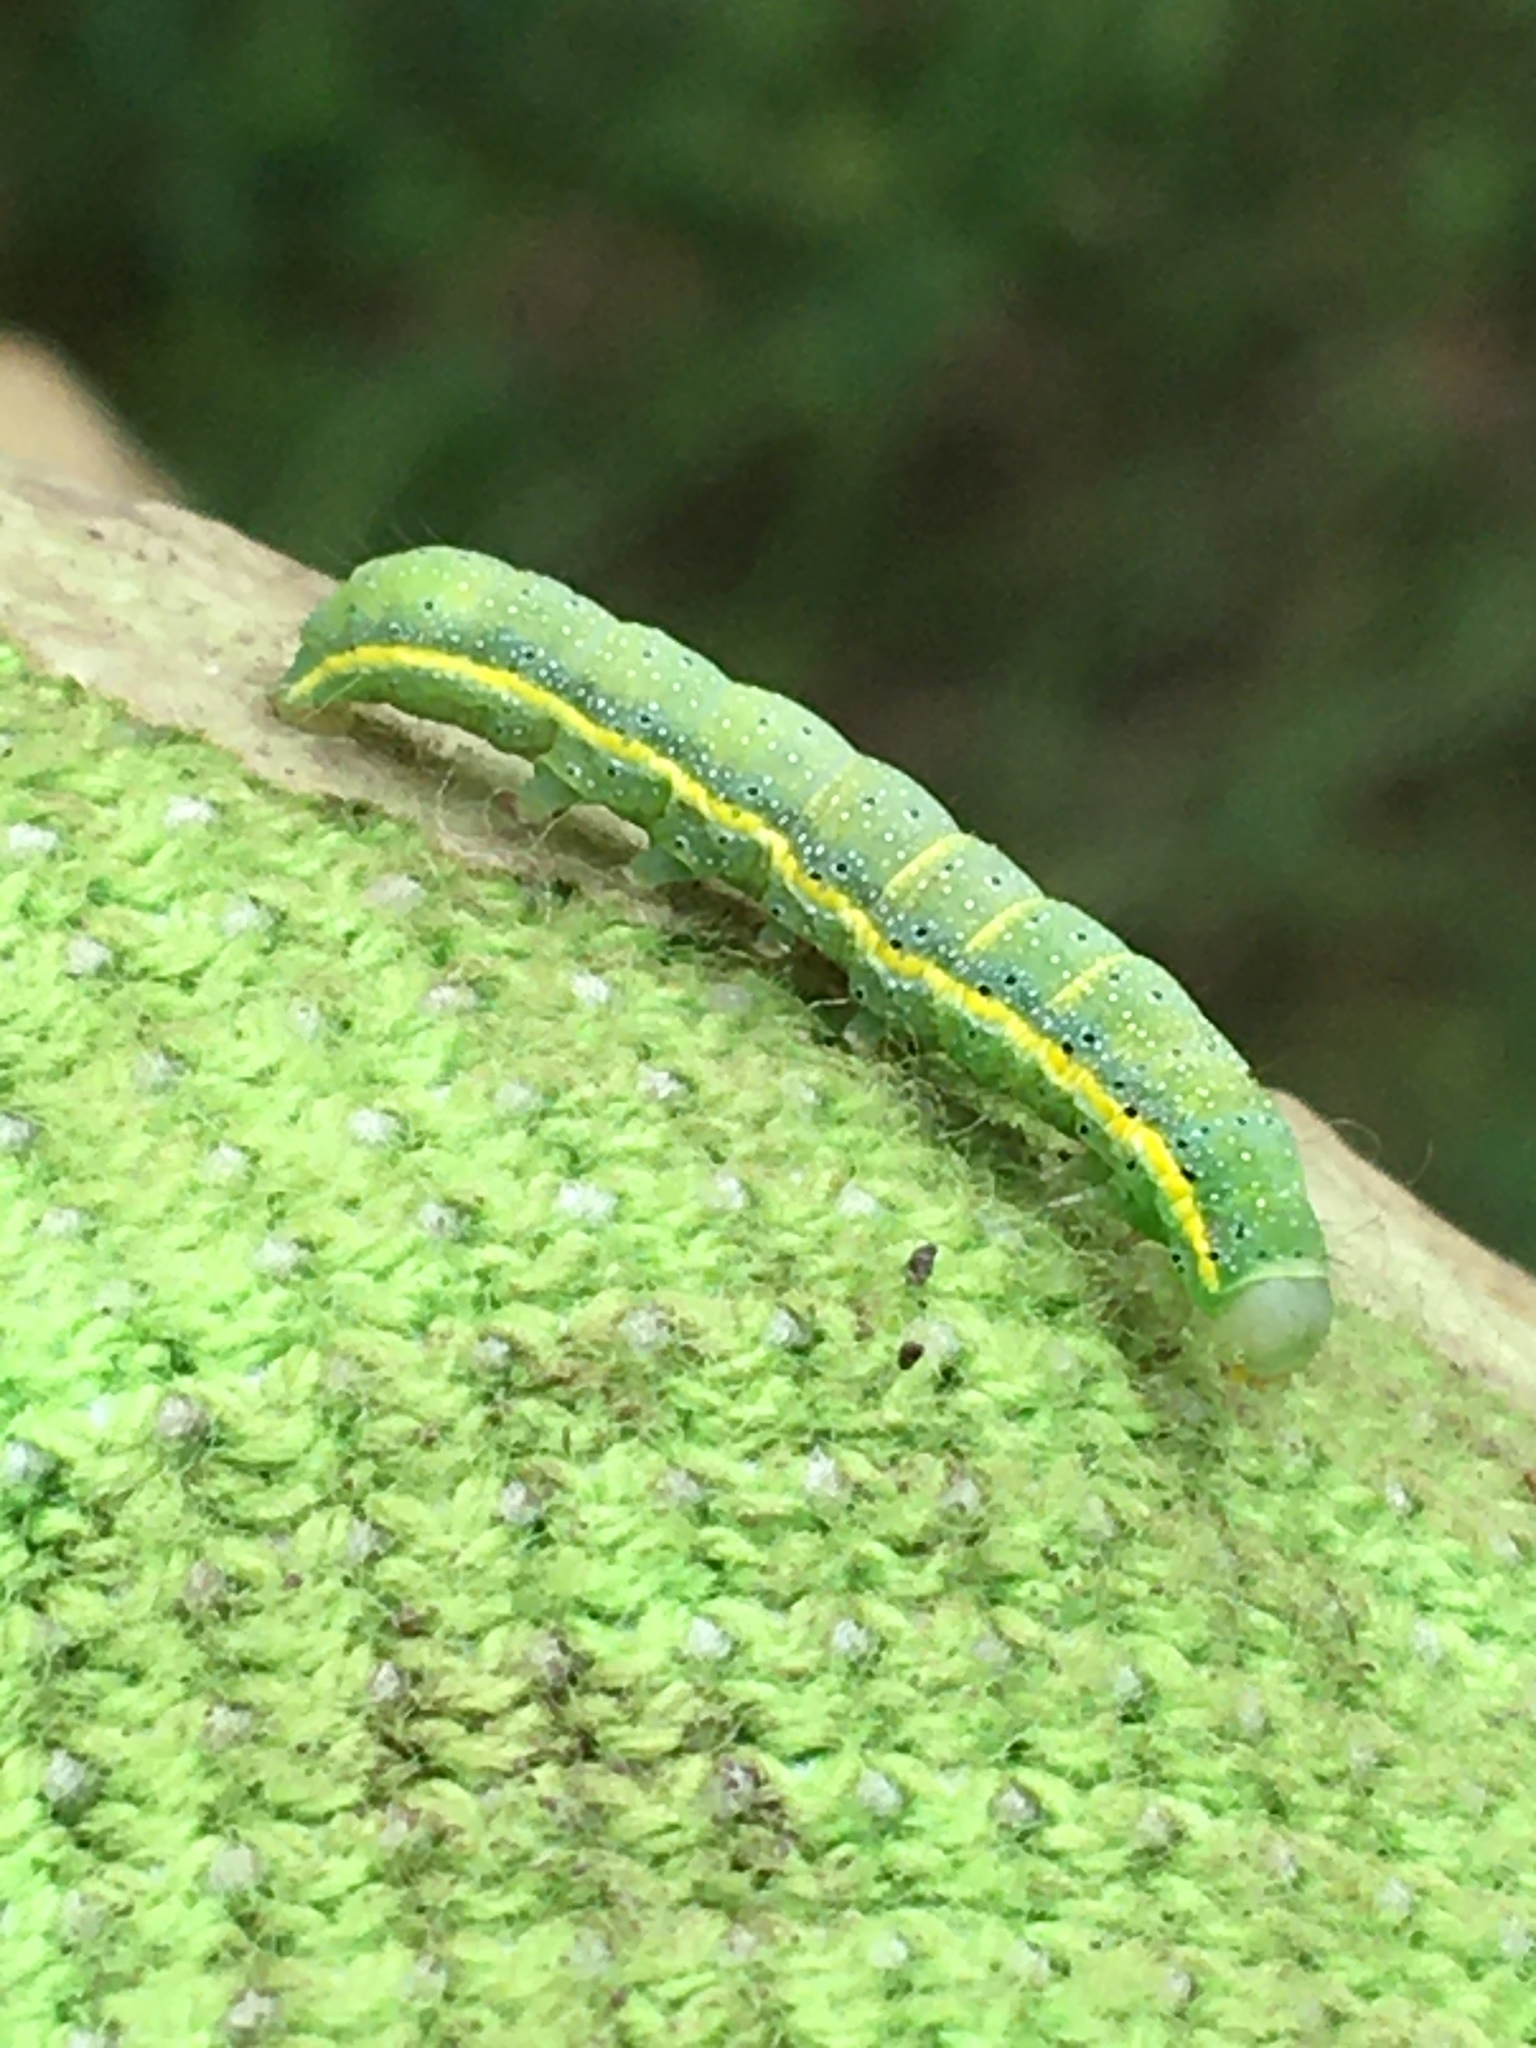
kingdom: Animalia
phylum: Arthropoda
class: Insecta
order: Lepidoptera
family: Noctuidae
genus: Lacanobia
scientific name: Lacanobia oleracea
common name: Bright-line brown-eye
